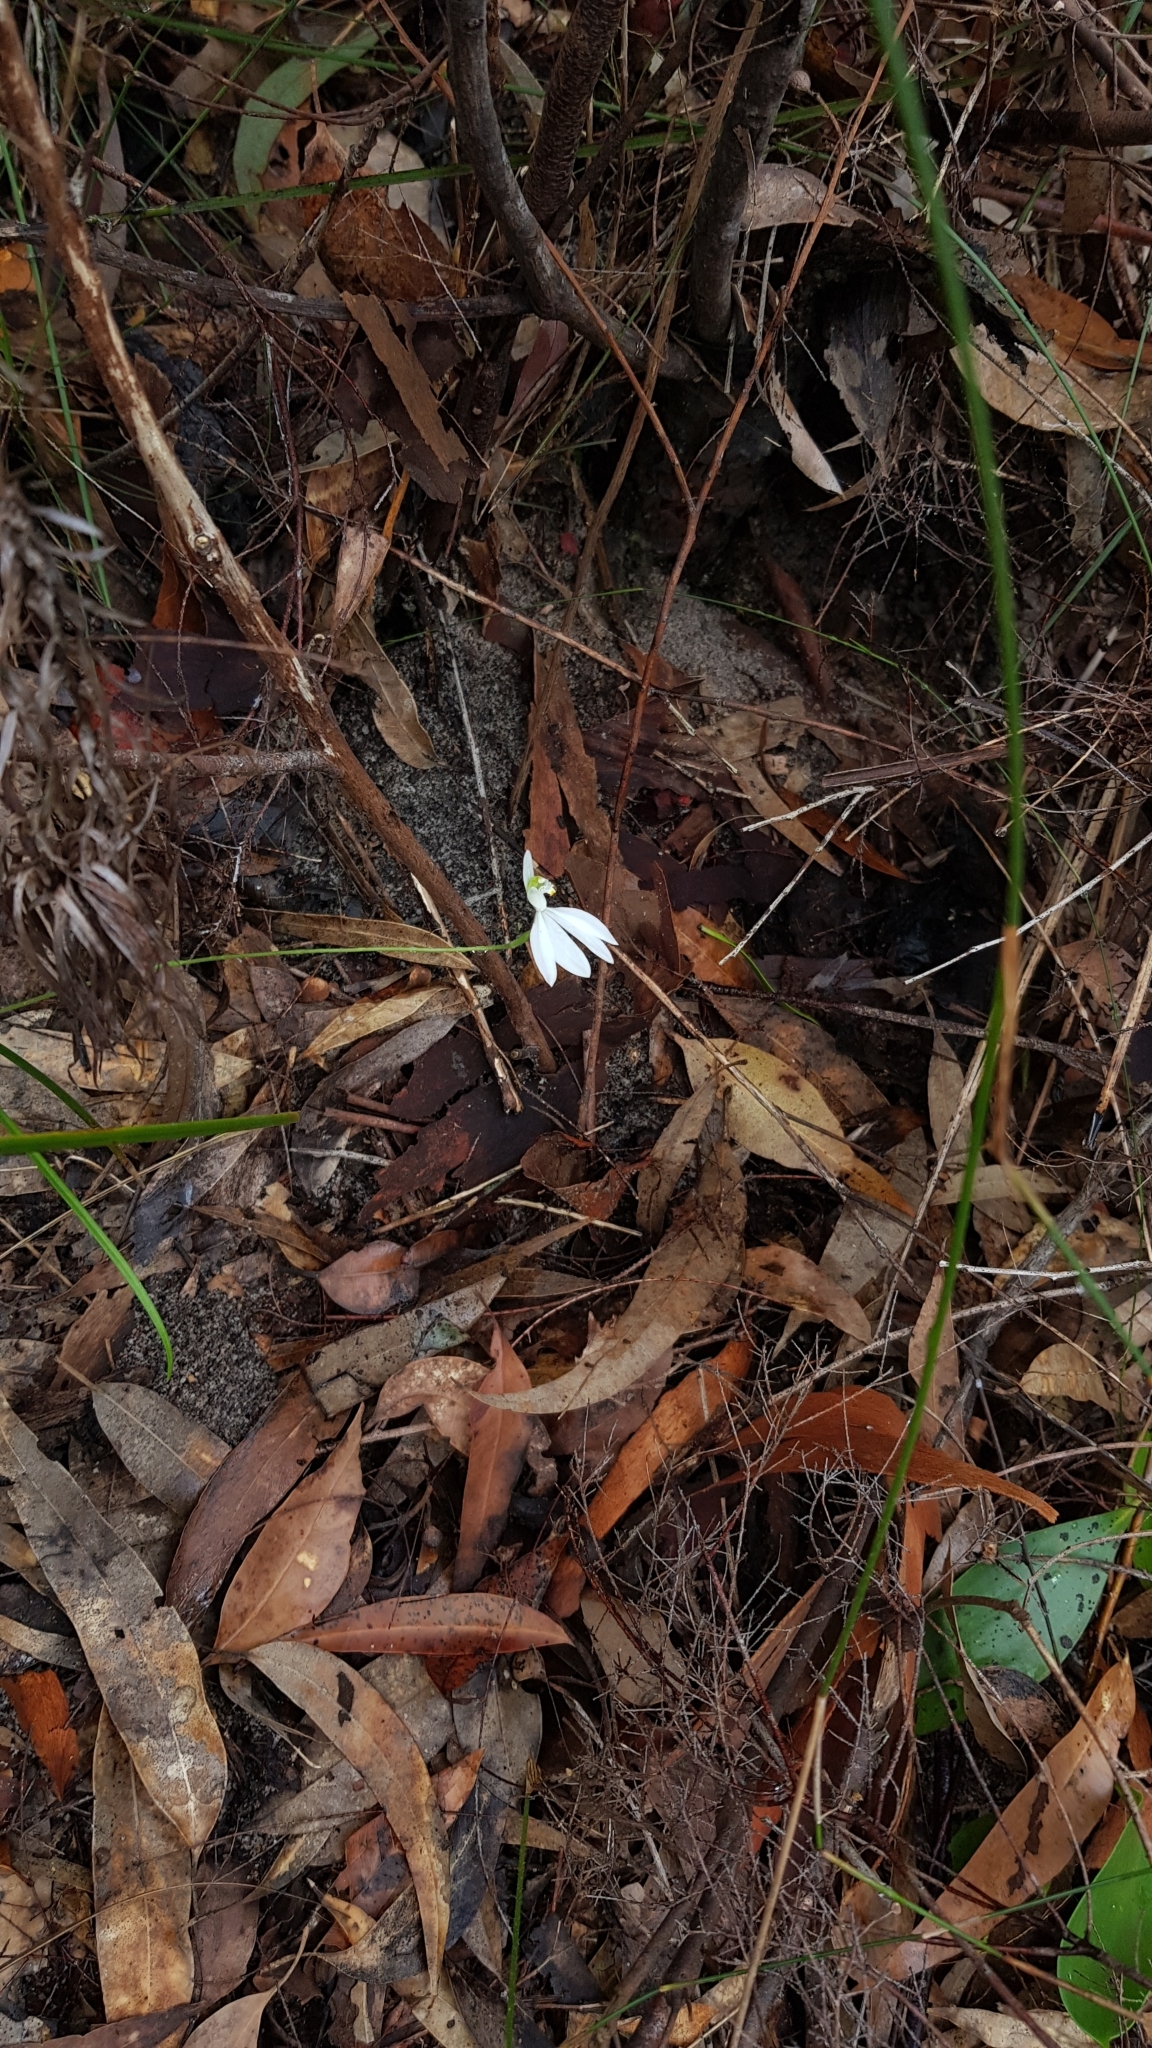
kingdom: Plantae
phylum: Tracheophyta
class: Liliopsida
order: Asparagales
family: Orchidaceae
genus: Caladenia
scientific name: Caladenia catenata
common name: White caladenia
